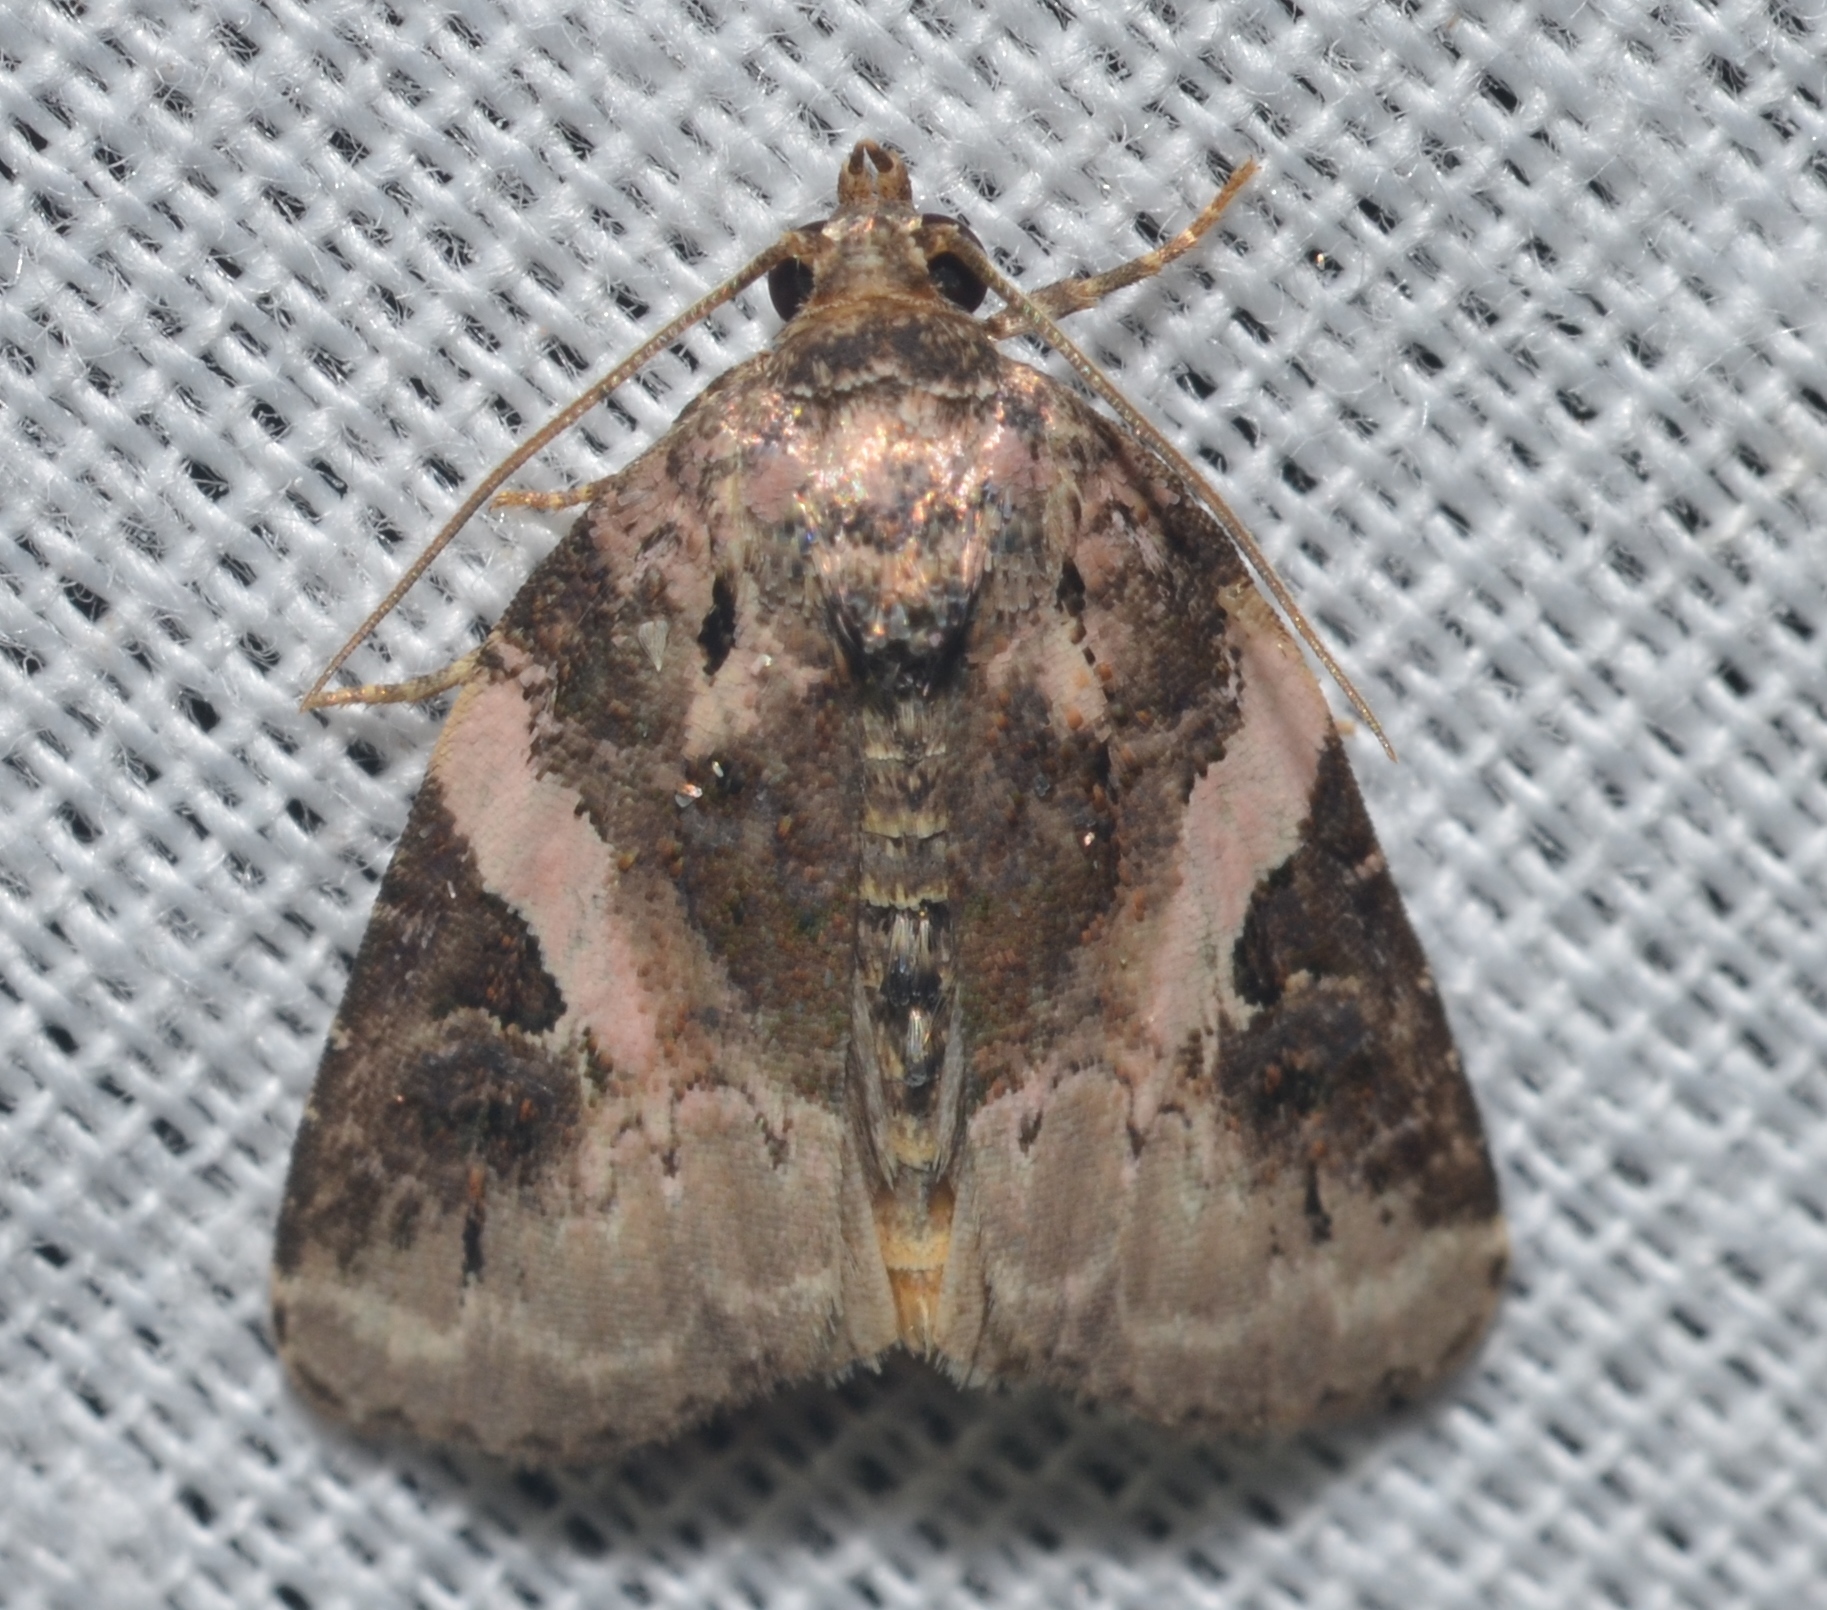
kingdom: Animalia
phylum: Arthropoda
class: Insecta
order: Lepidoptera
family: Noctuidae
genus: Pseudeustrotia
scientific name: Pseudeustrotia carneola
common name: Pink-barred lithacodia moth
